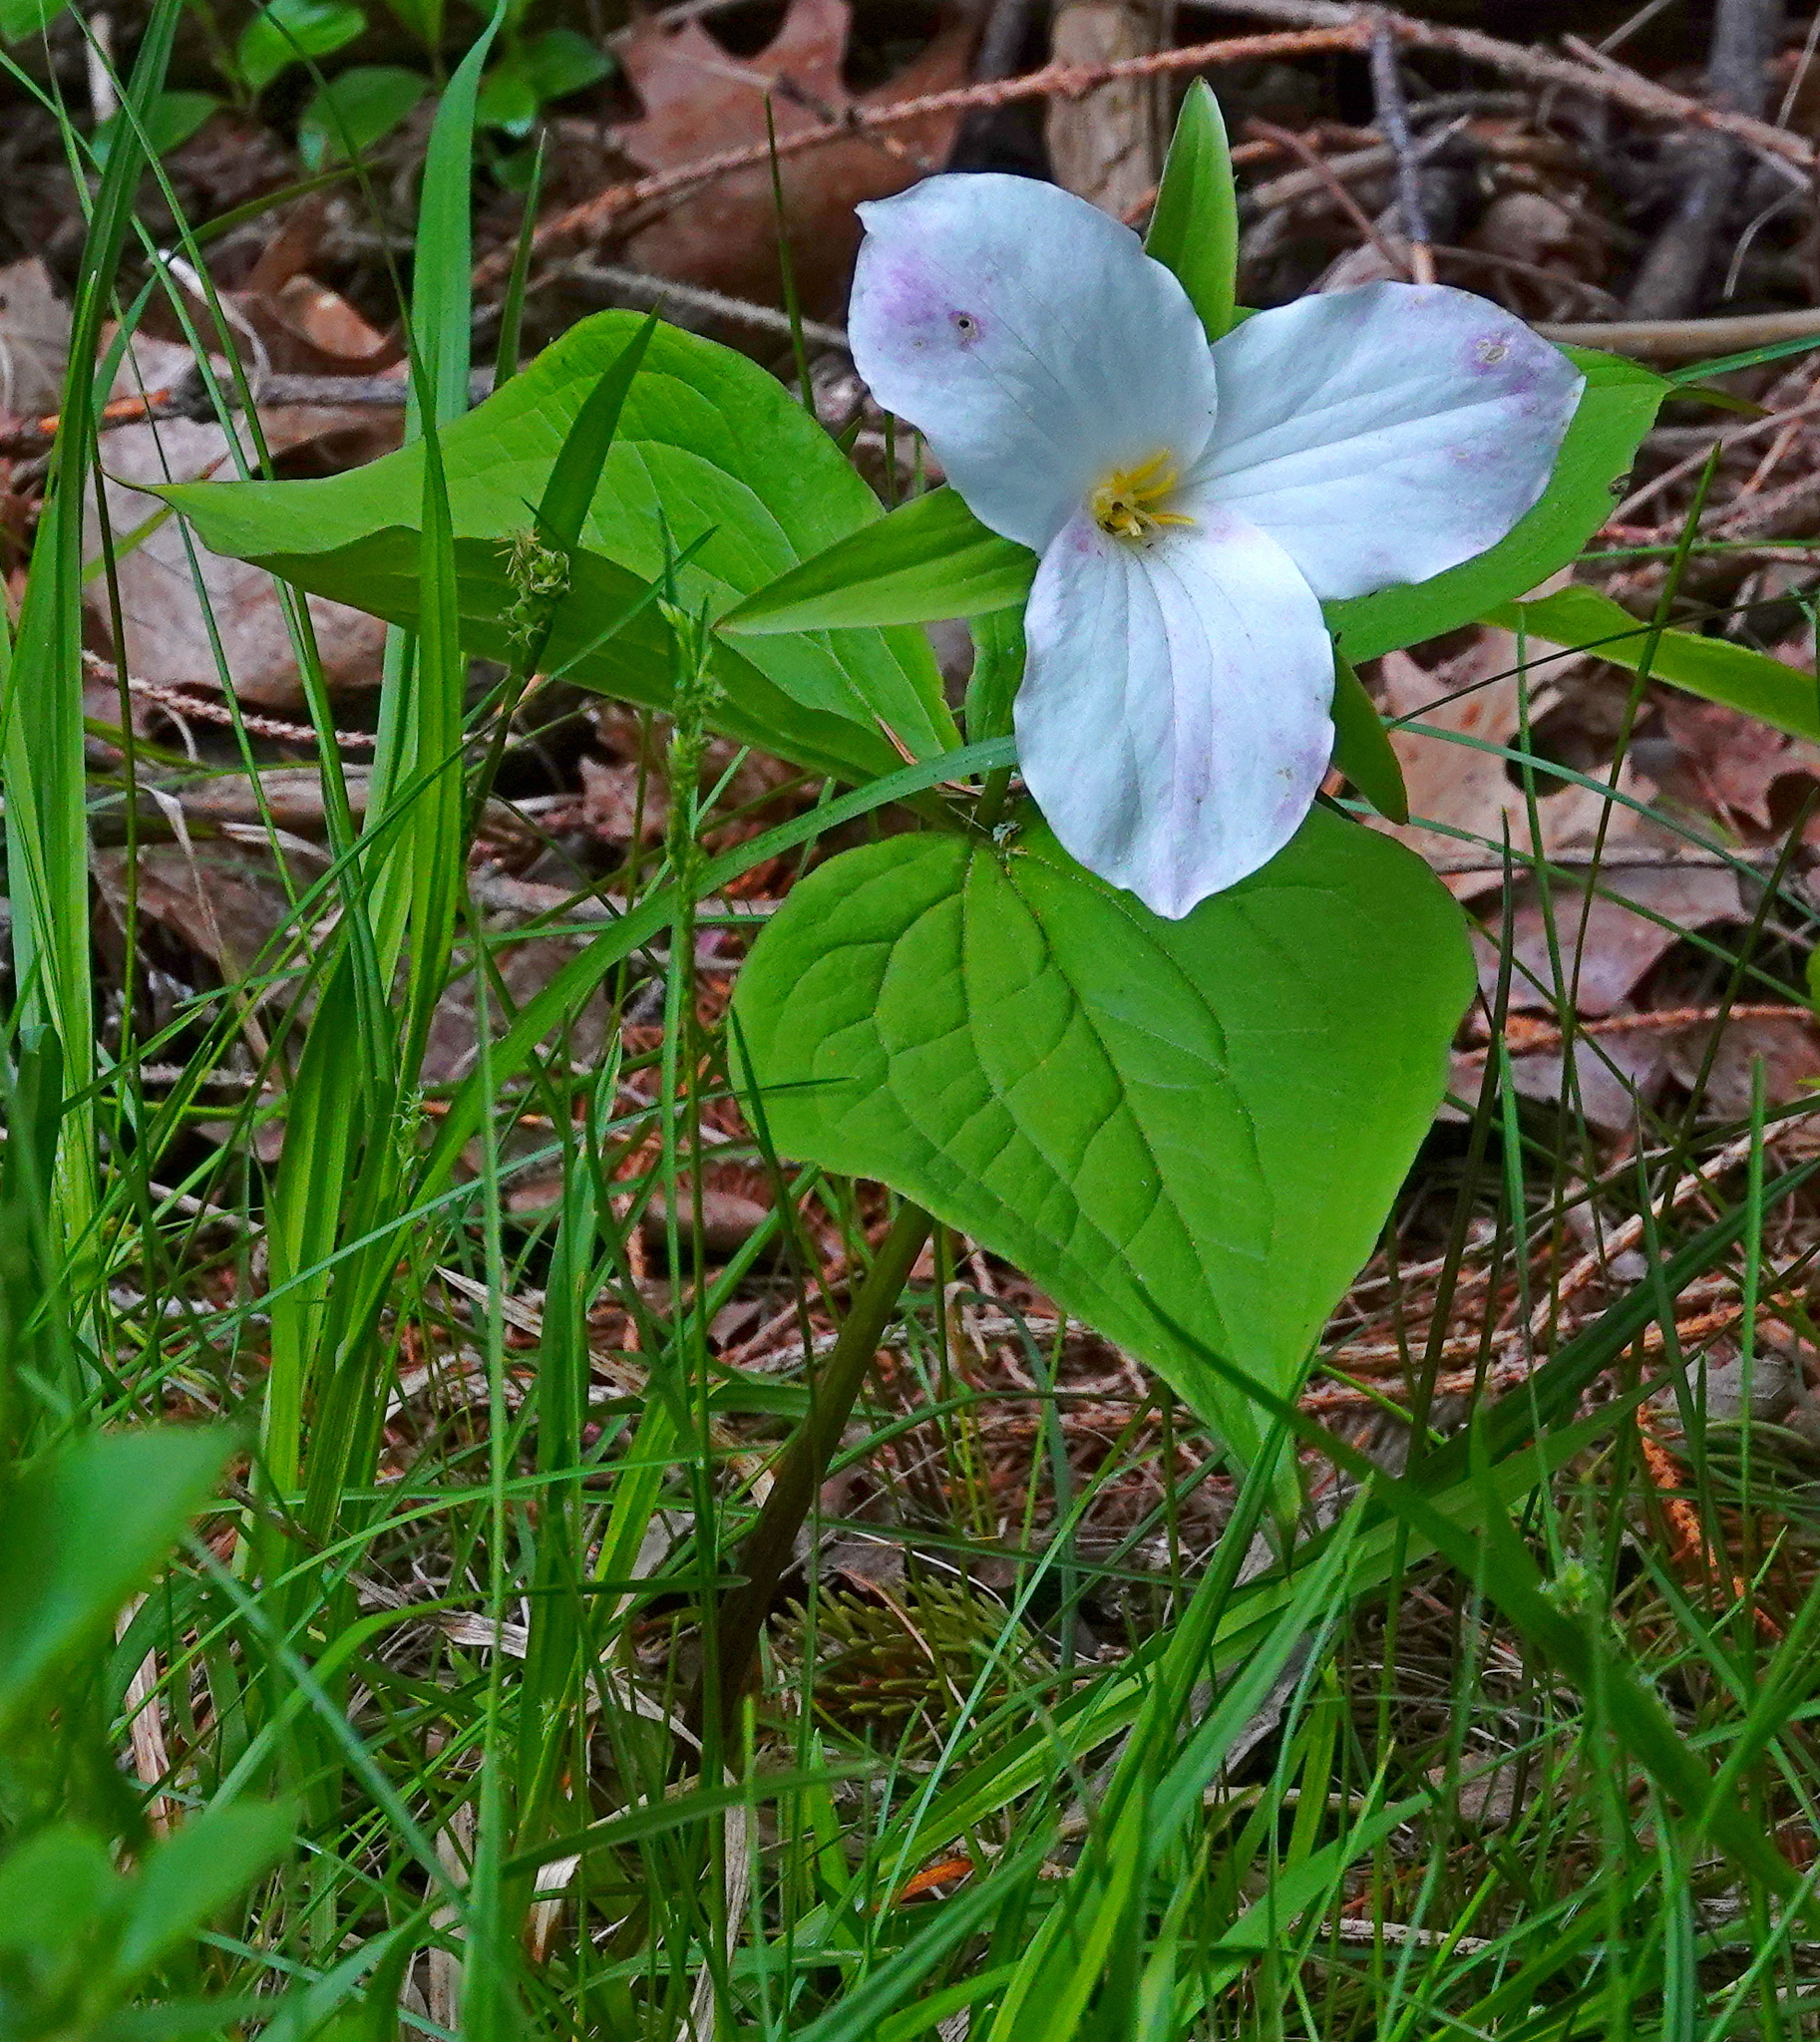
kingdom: Plantae
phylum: Tracheophyta
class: Liliopsida
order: Liliales
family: Melanthiaceae
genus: Trillium
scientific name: Trillium grandiflorum
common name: Great white trillium
